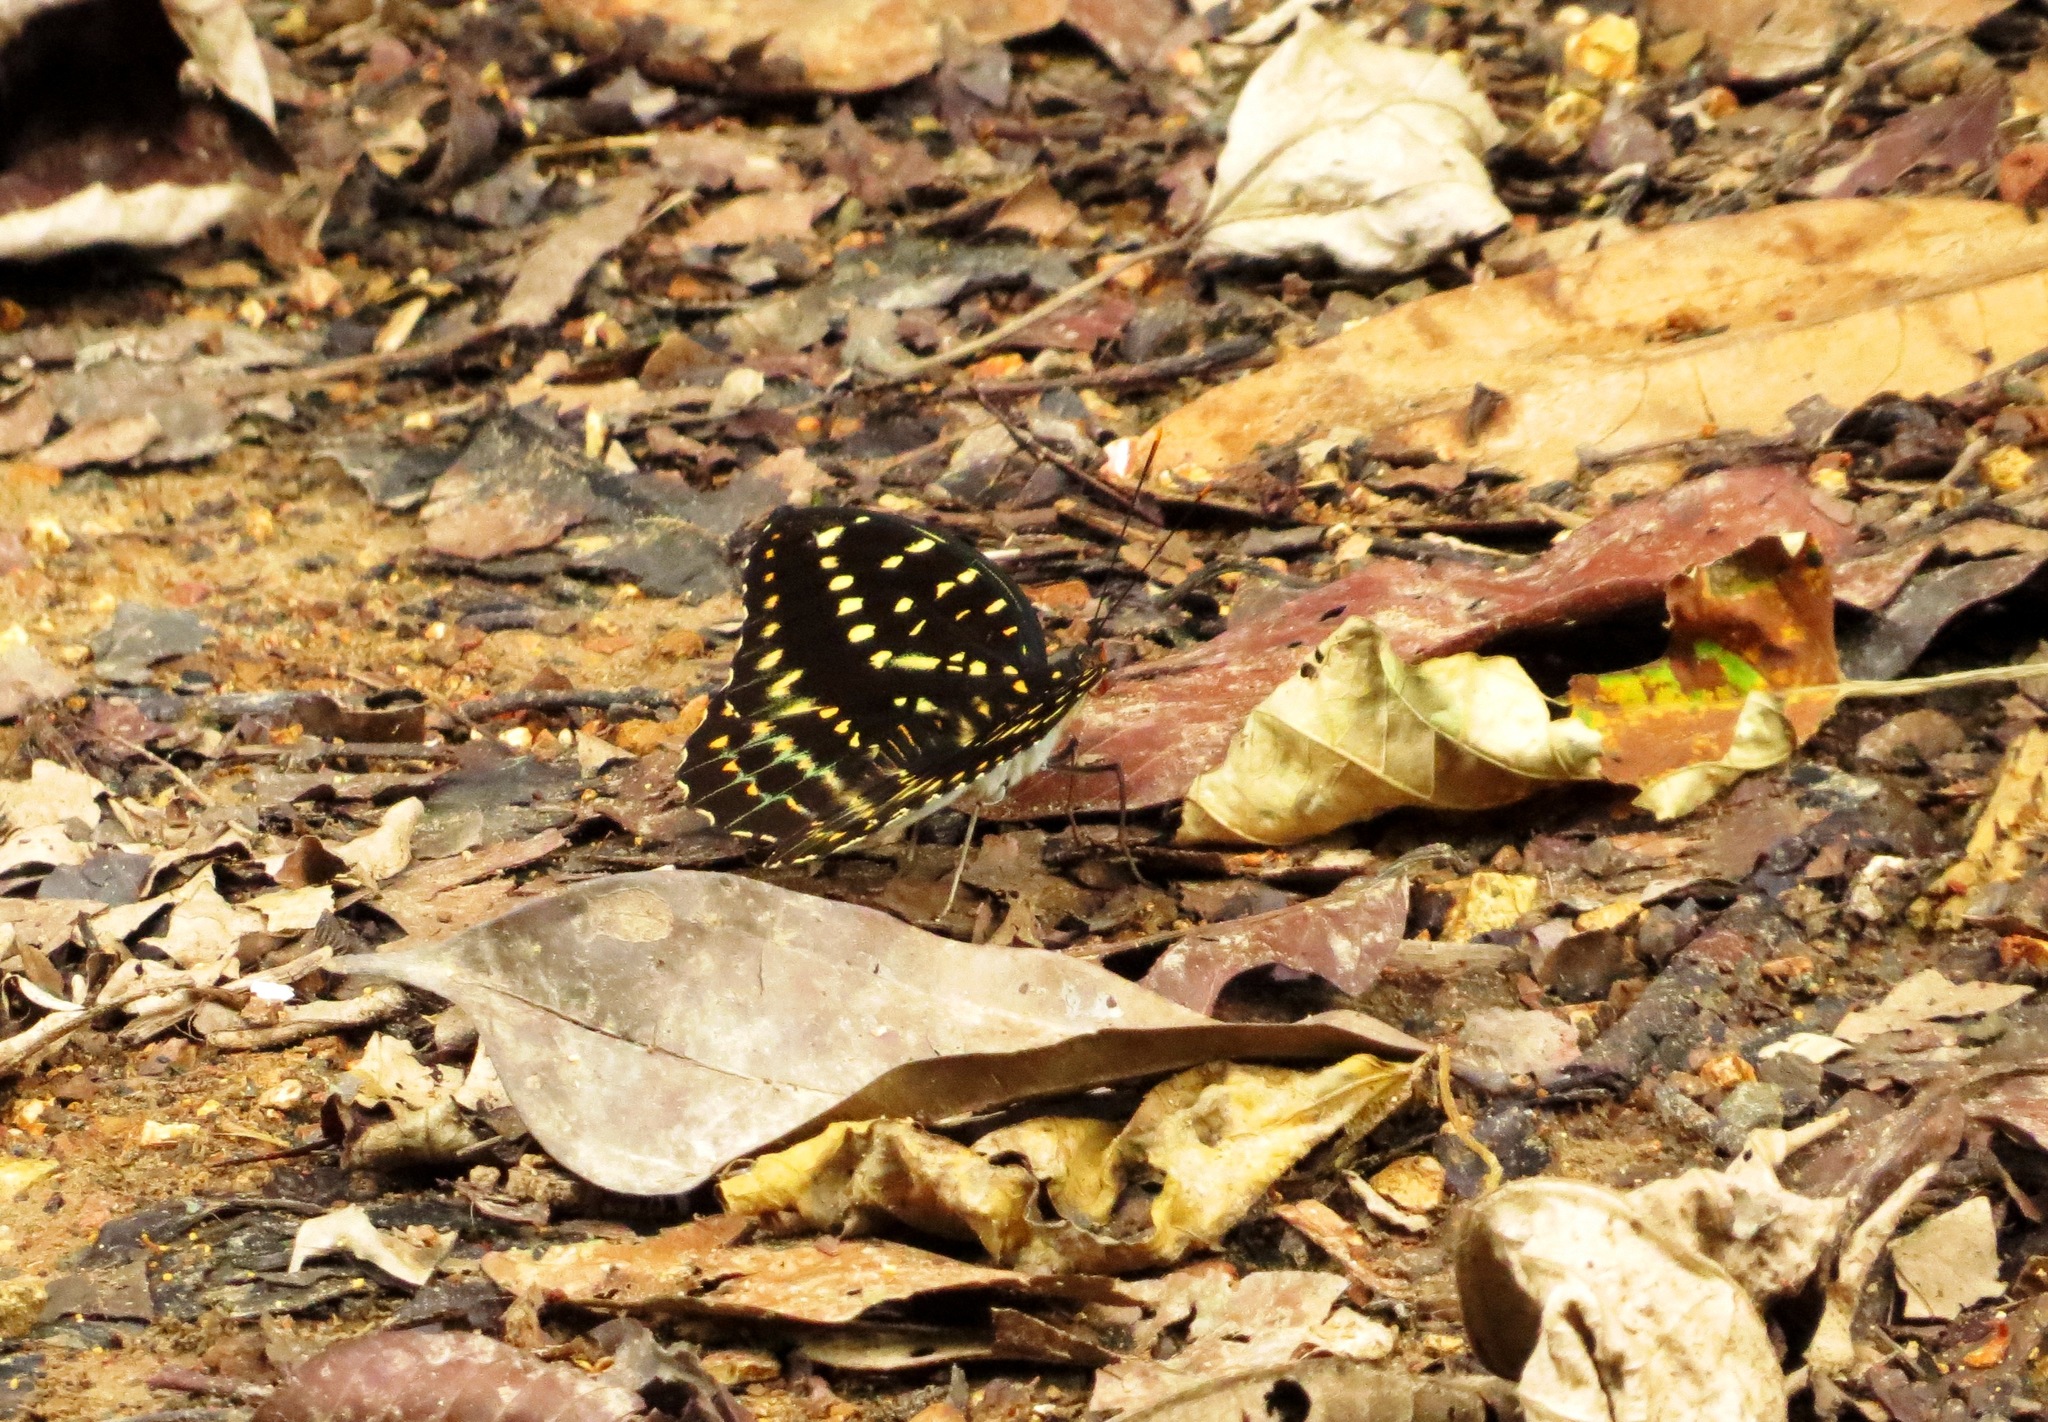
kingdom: Animalia
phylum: Arthropoda
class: Insecta
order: Lepidoptera
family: Nymphalidae
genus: Lexias
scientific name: Lexias pardalis
